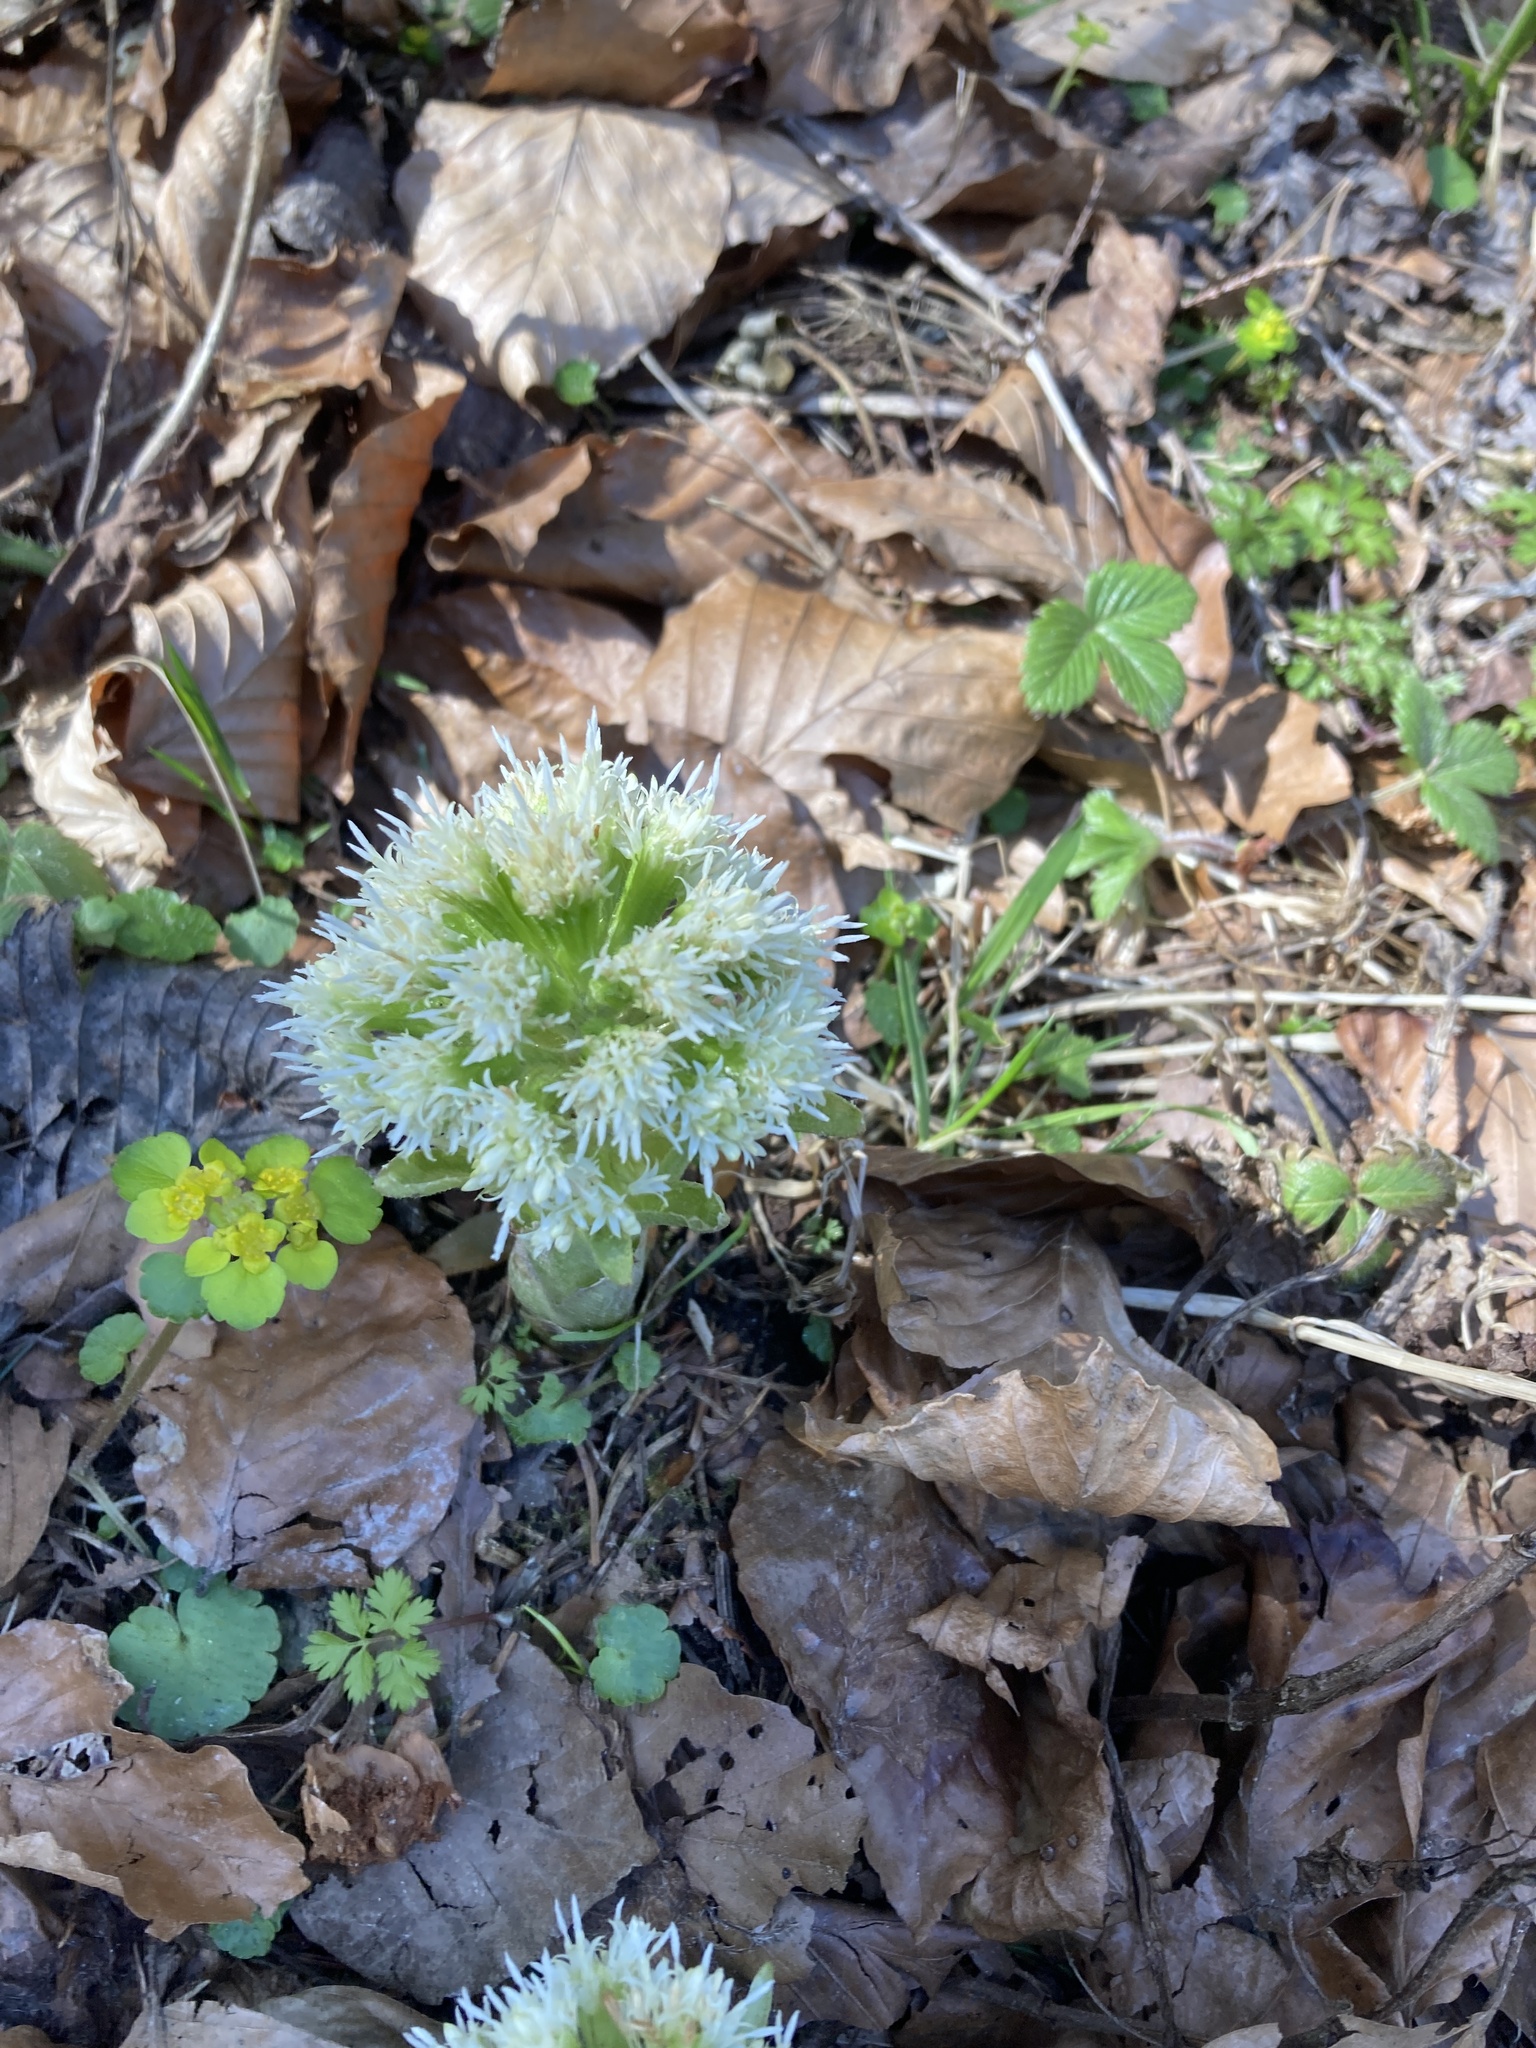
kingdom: Plantae
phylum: Tracheophyta
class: Magnoliopsida
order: Asterales
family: Asteraceae
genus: Petasites
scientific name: Petasites albus
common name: White butterbur
